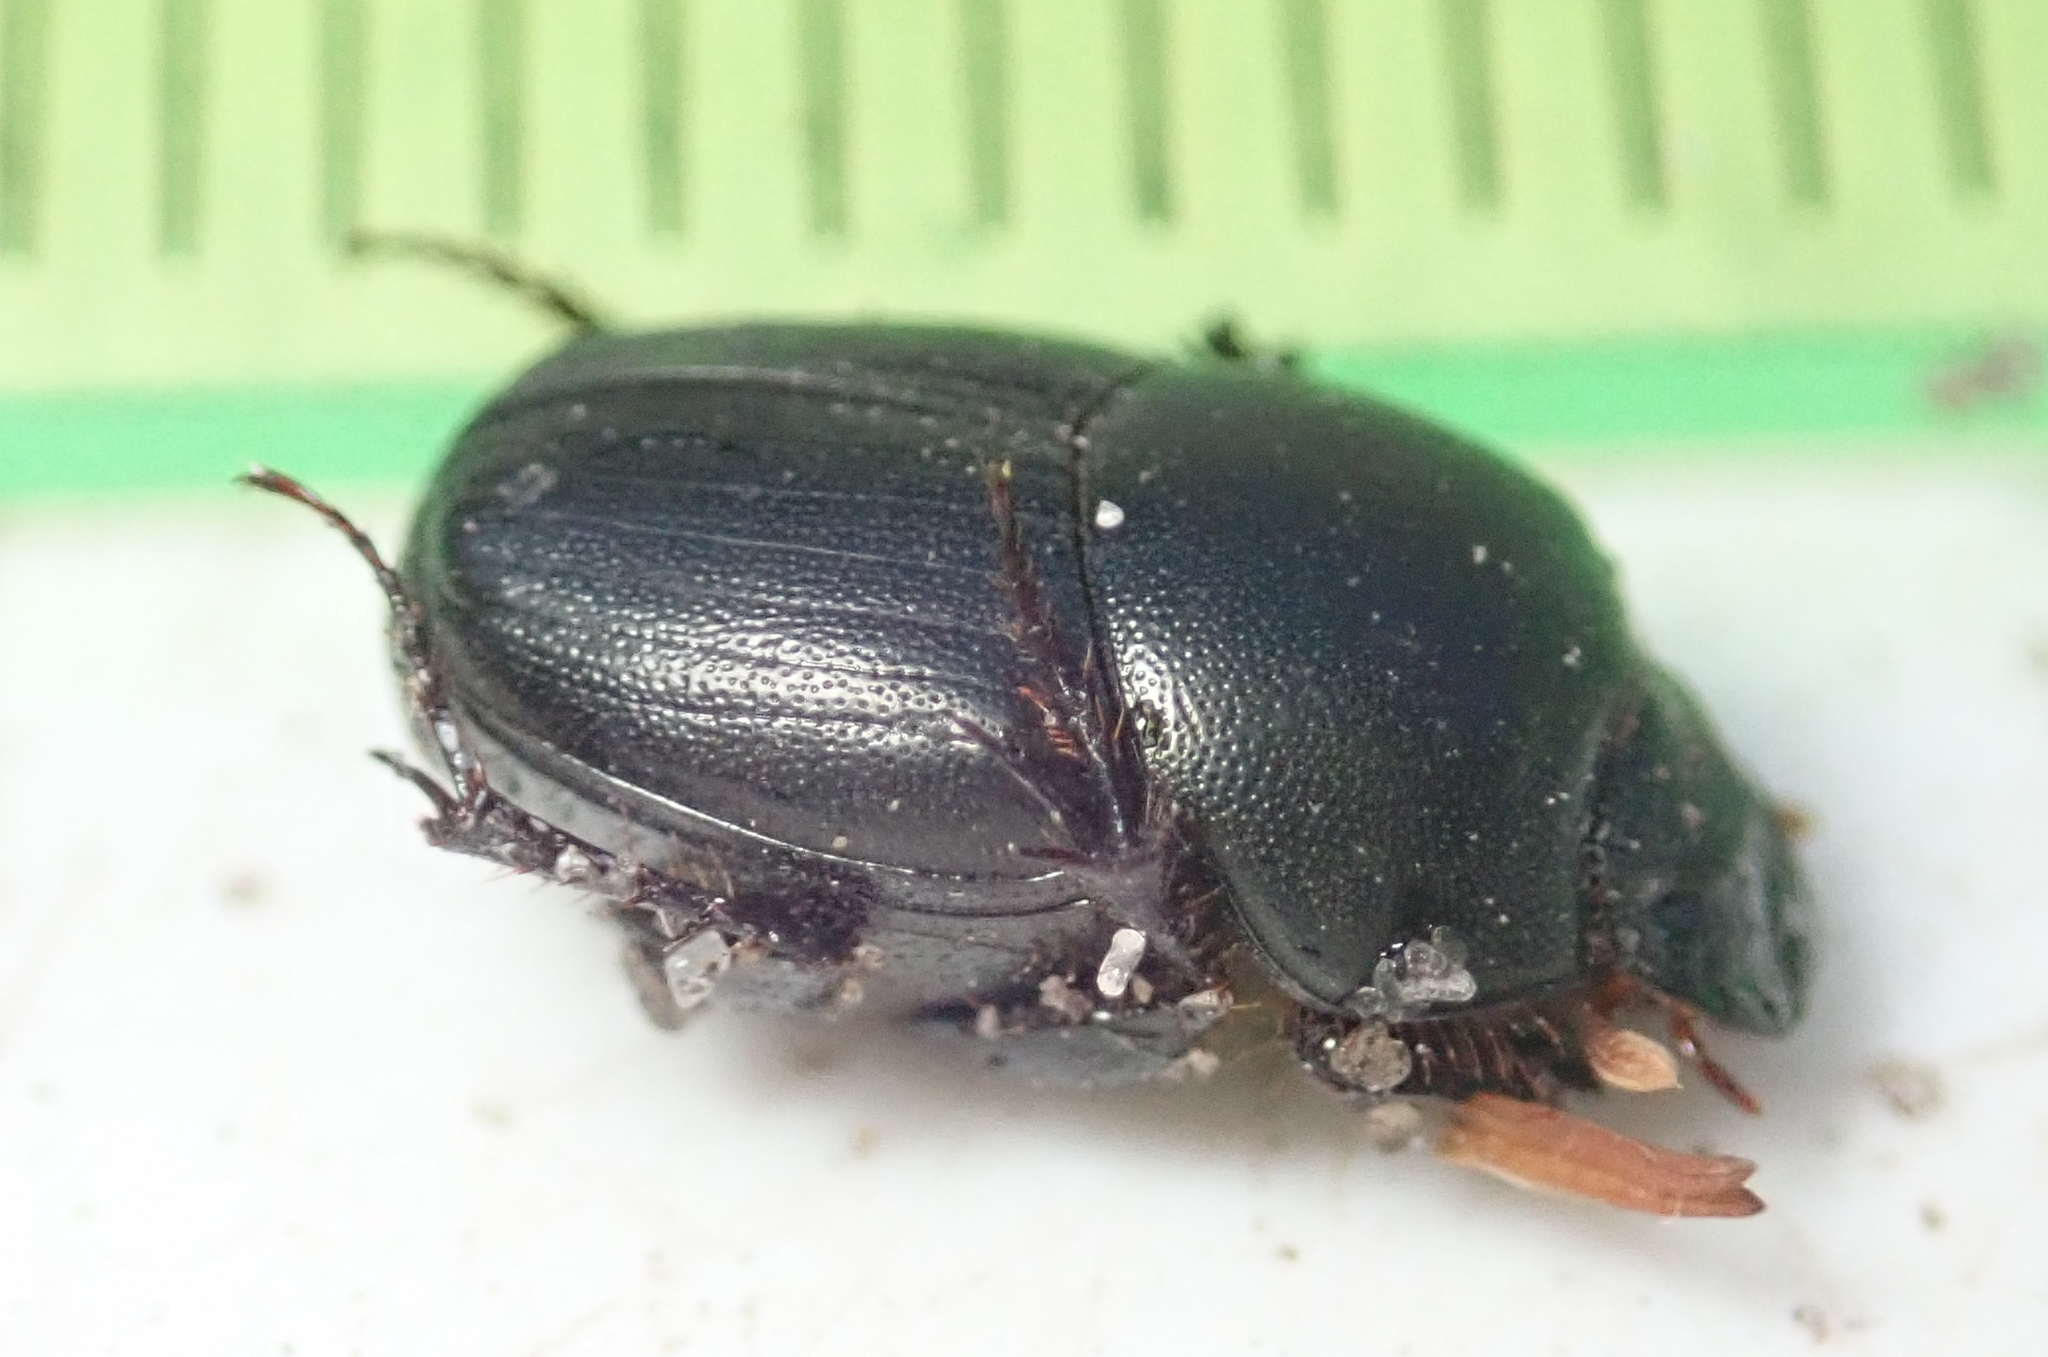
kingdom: Animalia
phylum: Arthropoda
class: Insecta
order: Coleoptera
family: Scarabaeidae
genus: Euonthophagus
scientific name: Euonthophagus carbonarius
